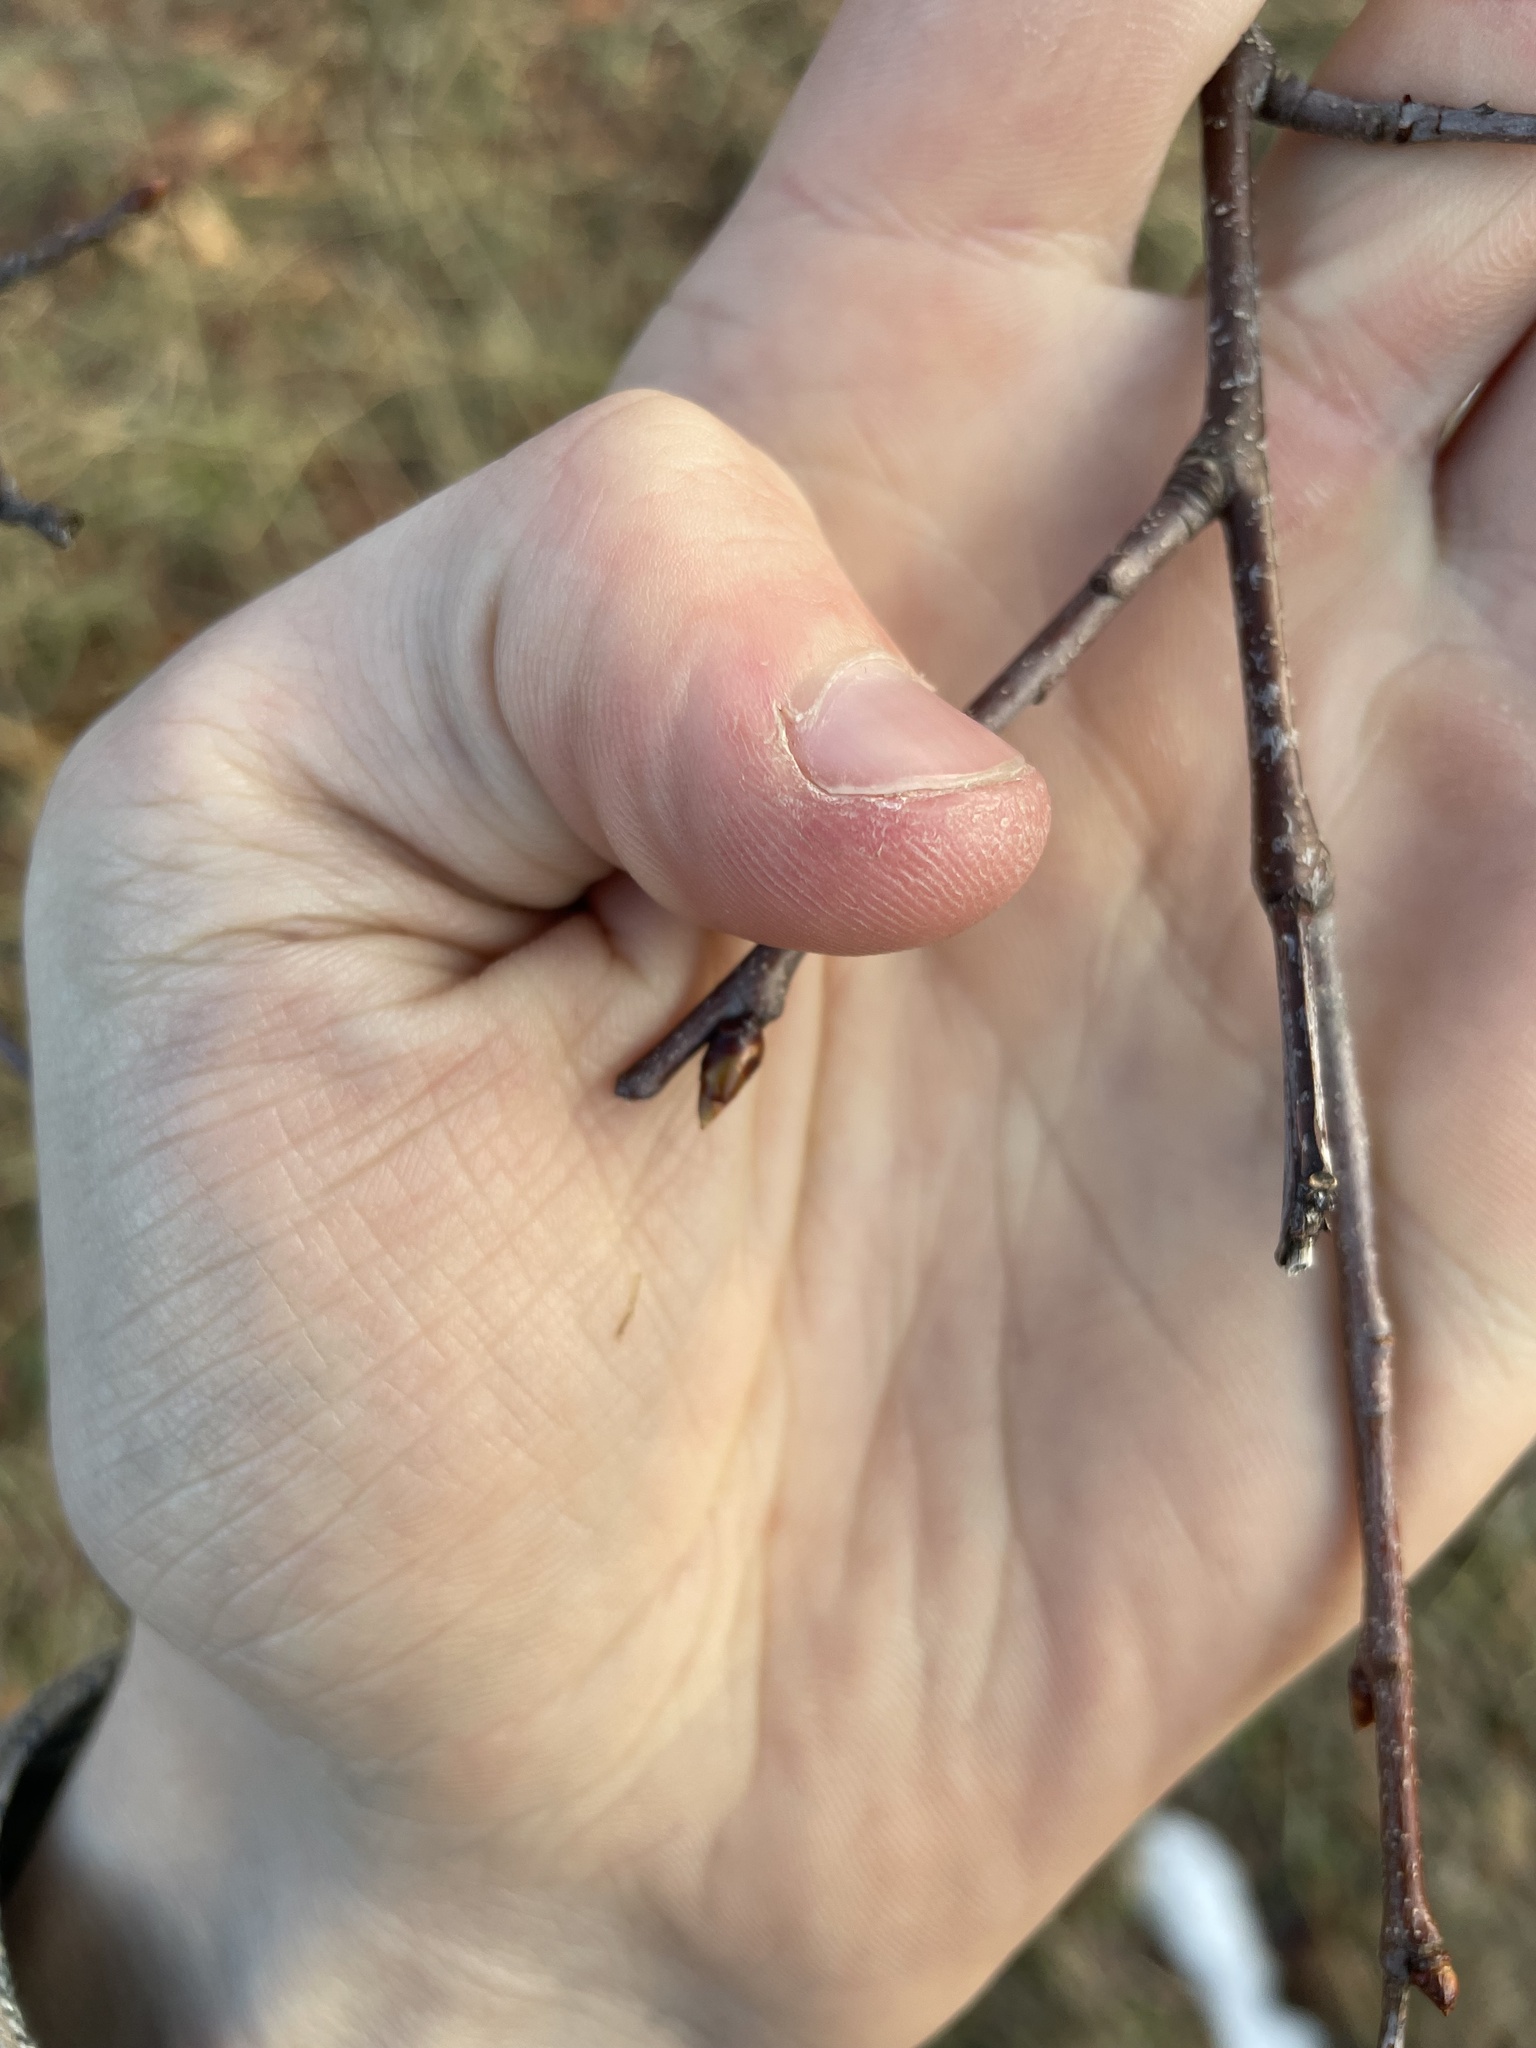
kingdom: Plantae
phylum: Tracheophyta
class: Magnoliopsida
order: Rosales
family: Rosaceae
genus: Prunus
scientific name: Prunus serotina
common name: Black cherry
